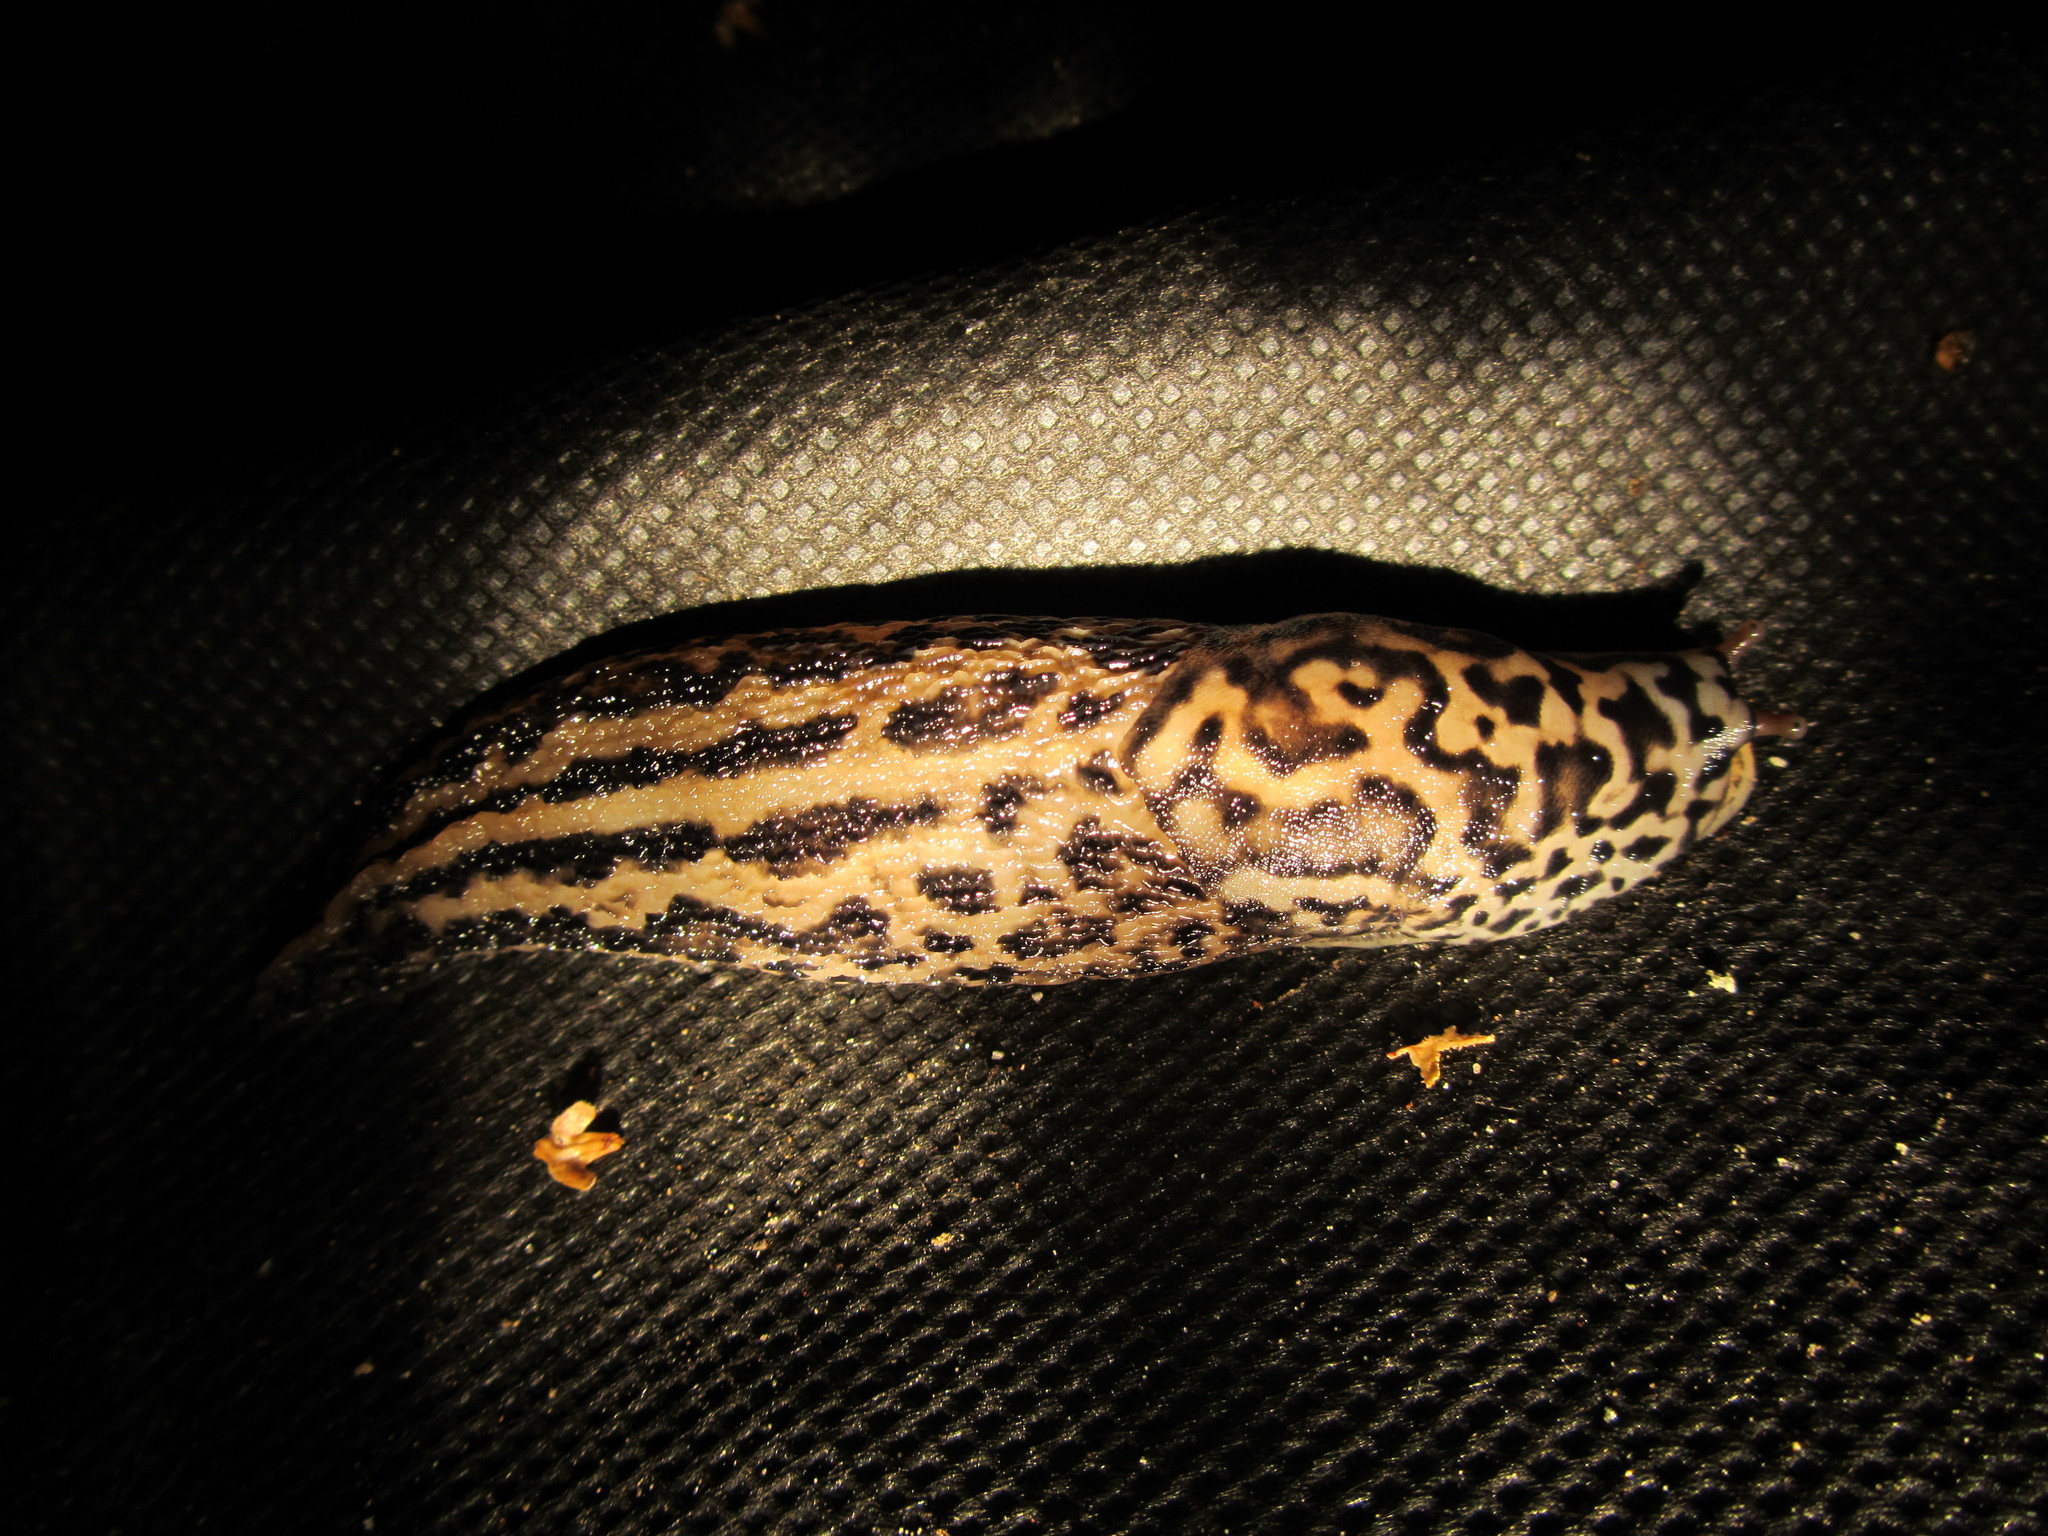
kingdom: Animalia
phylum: Mollusca
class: Gastropoda
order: Stylommatophora
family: Limacidae
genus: Limax
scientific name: Limax maximus
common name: Great grey slug
